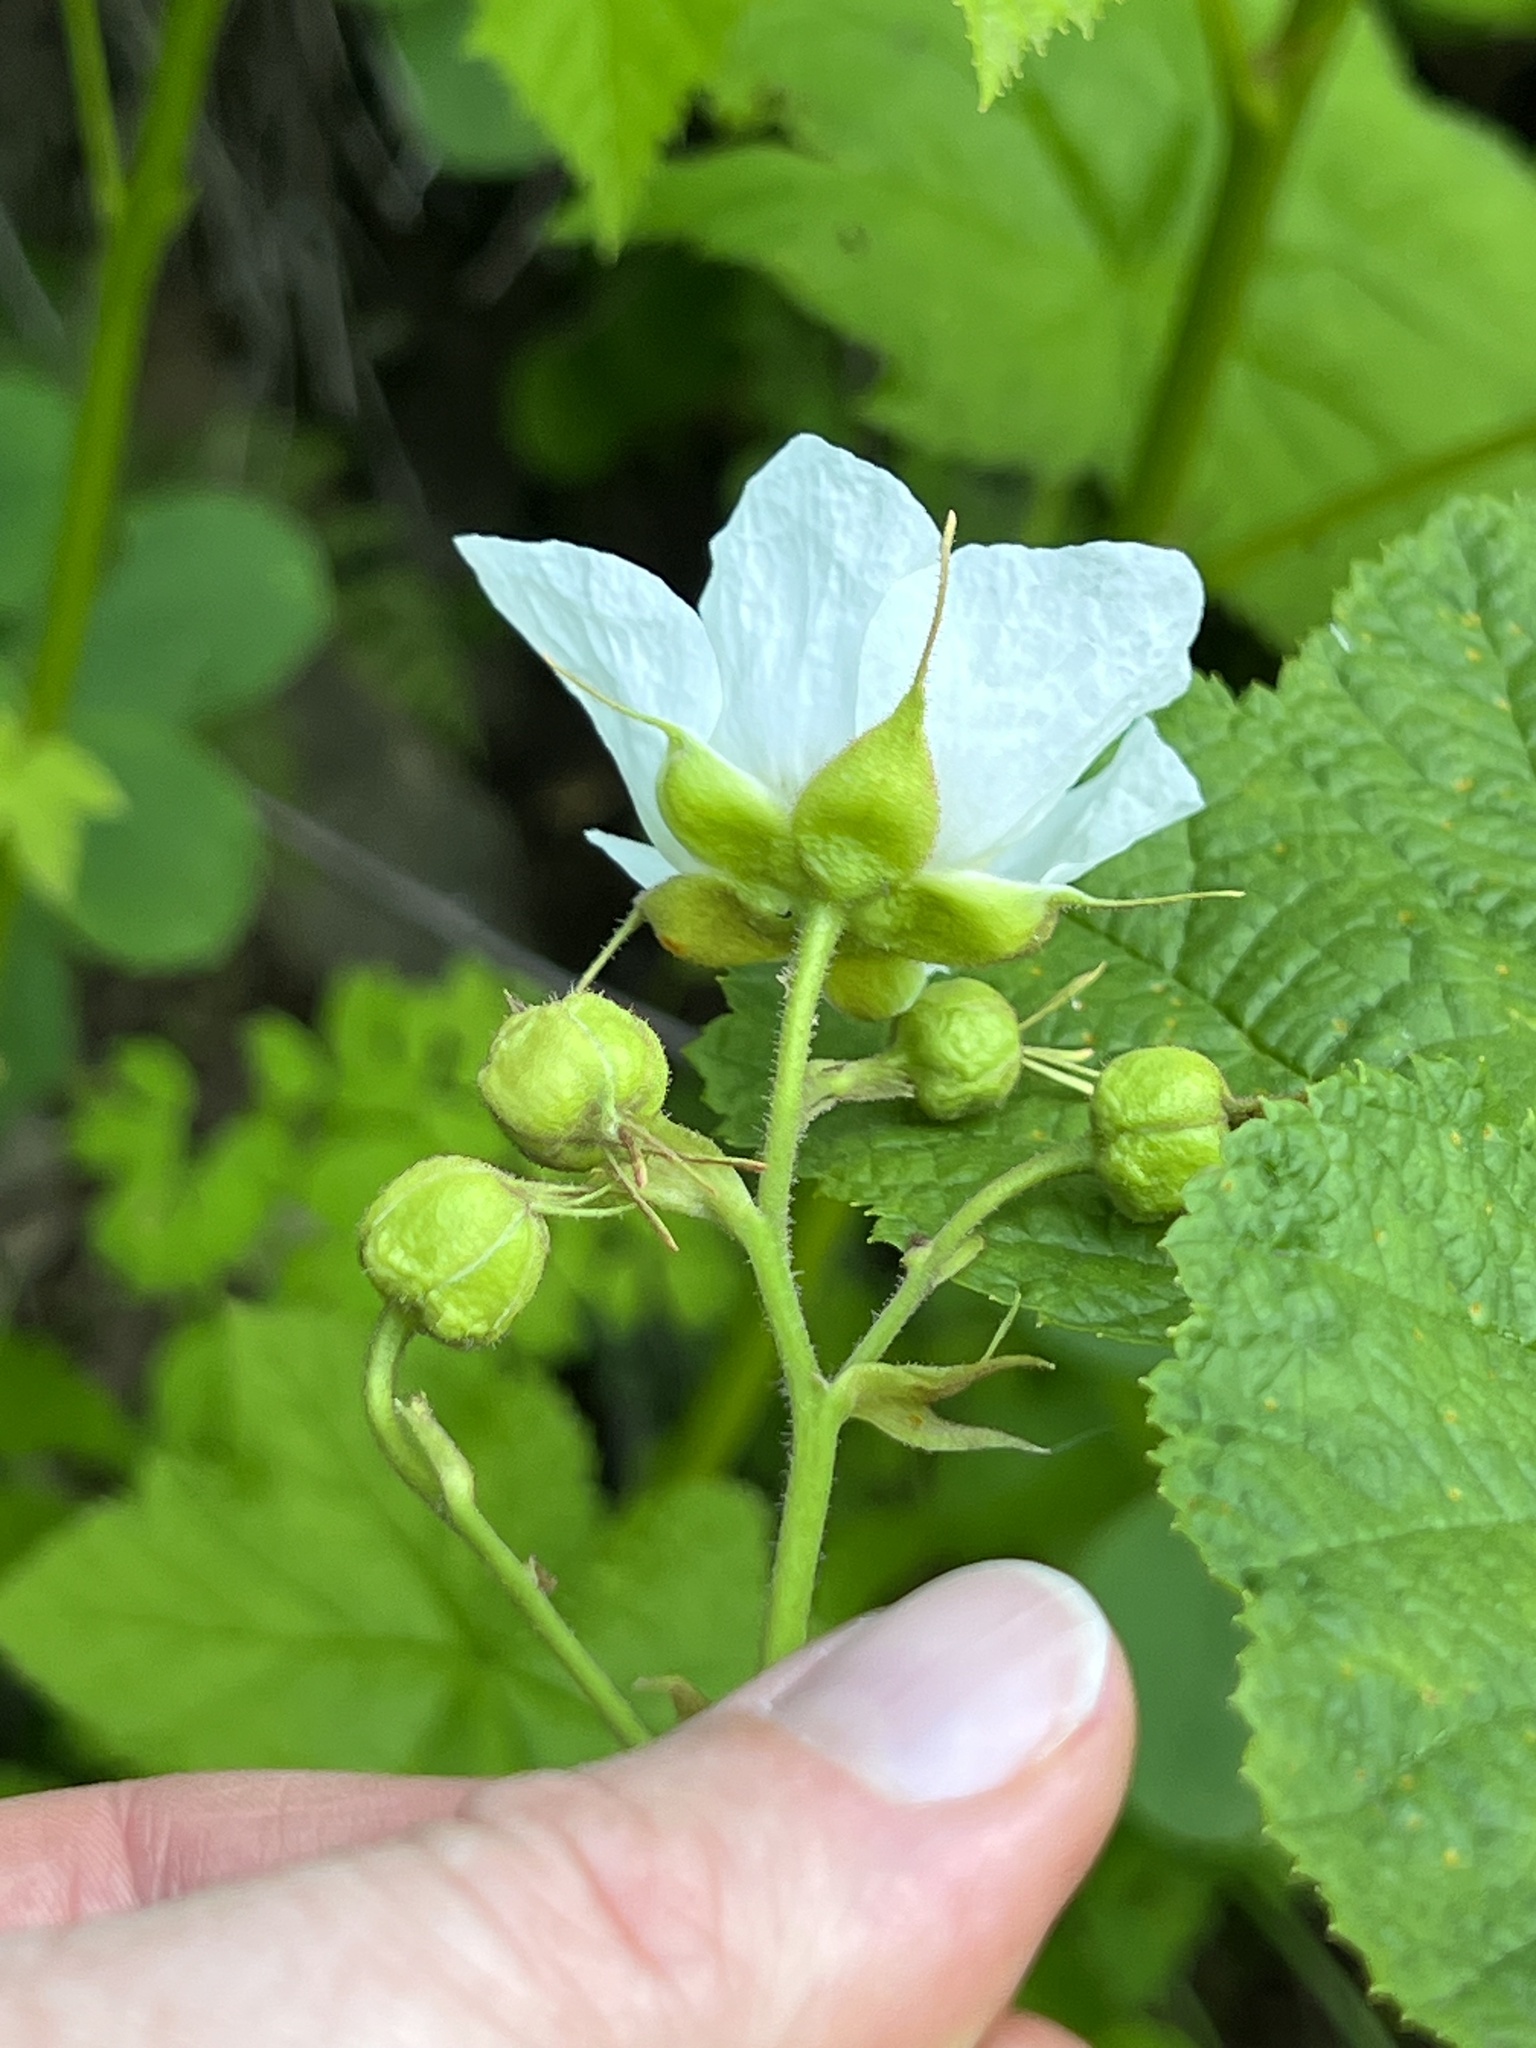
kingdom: Plantae
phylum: Tracheophyta
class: Magnoliopsida
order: Rosales
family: Rosaceae
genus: Rubus
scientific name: Rubus parviflorus
